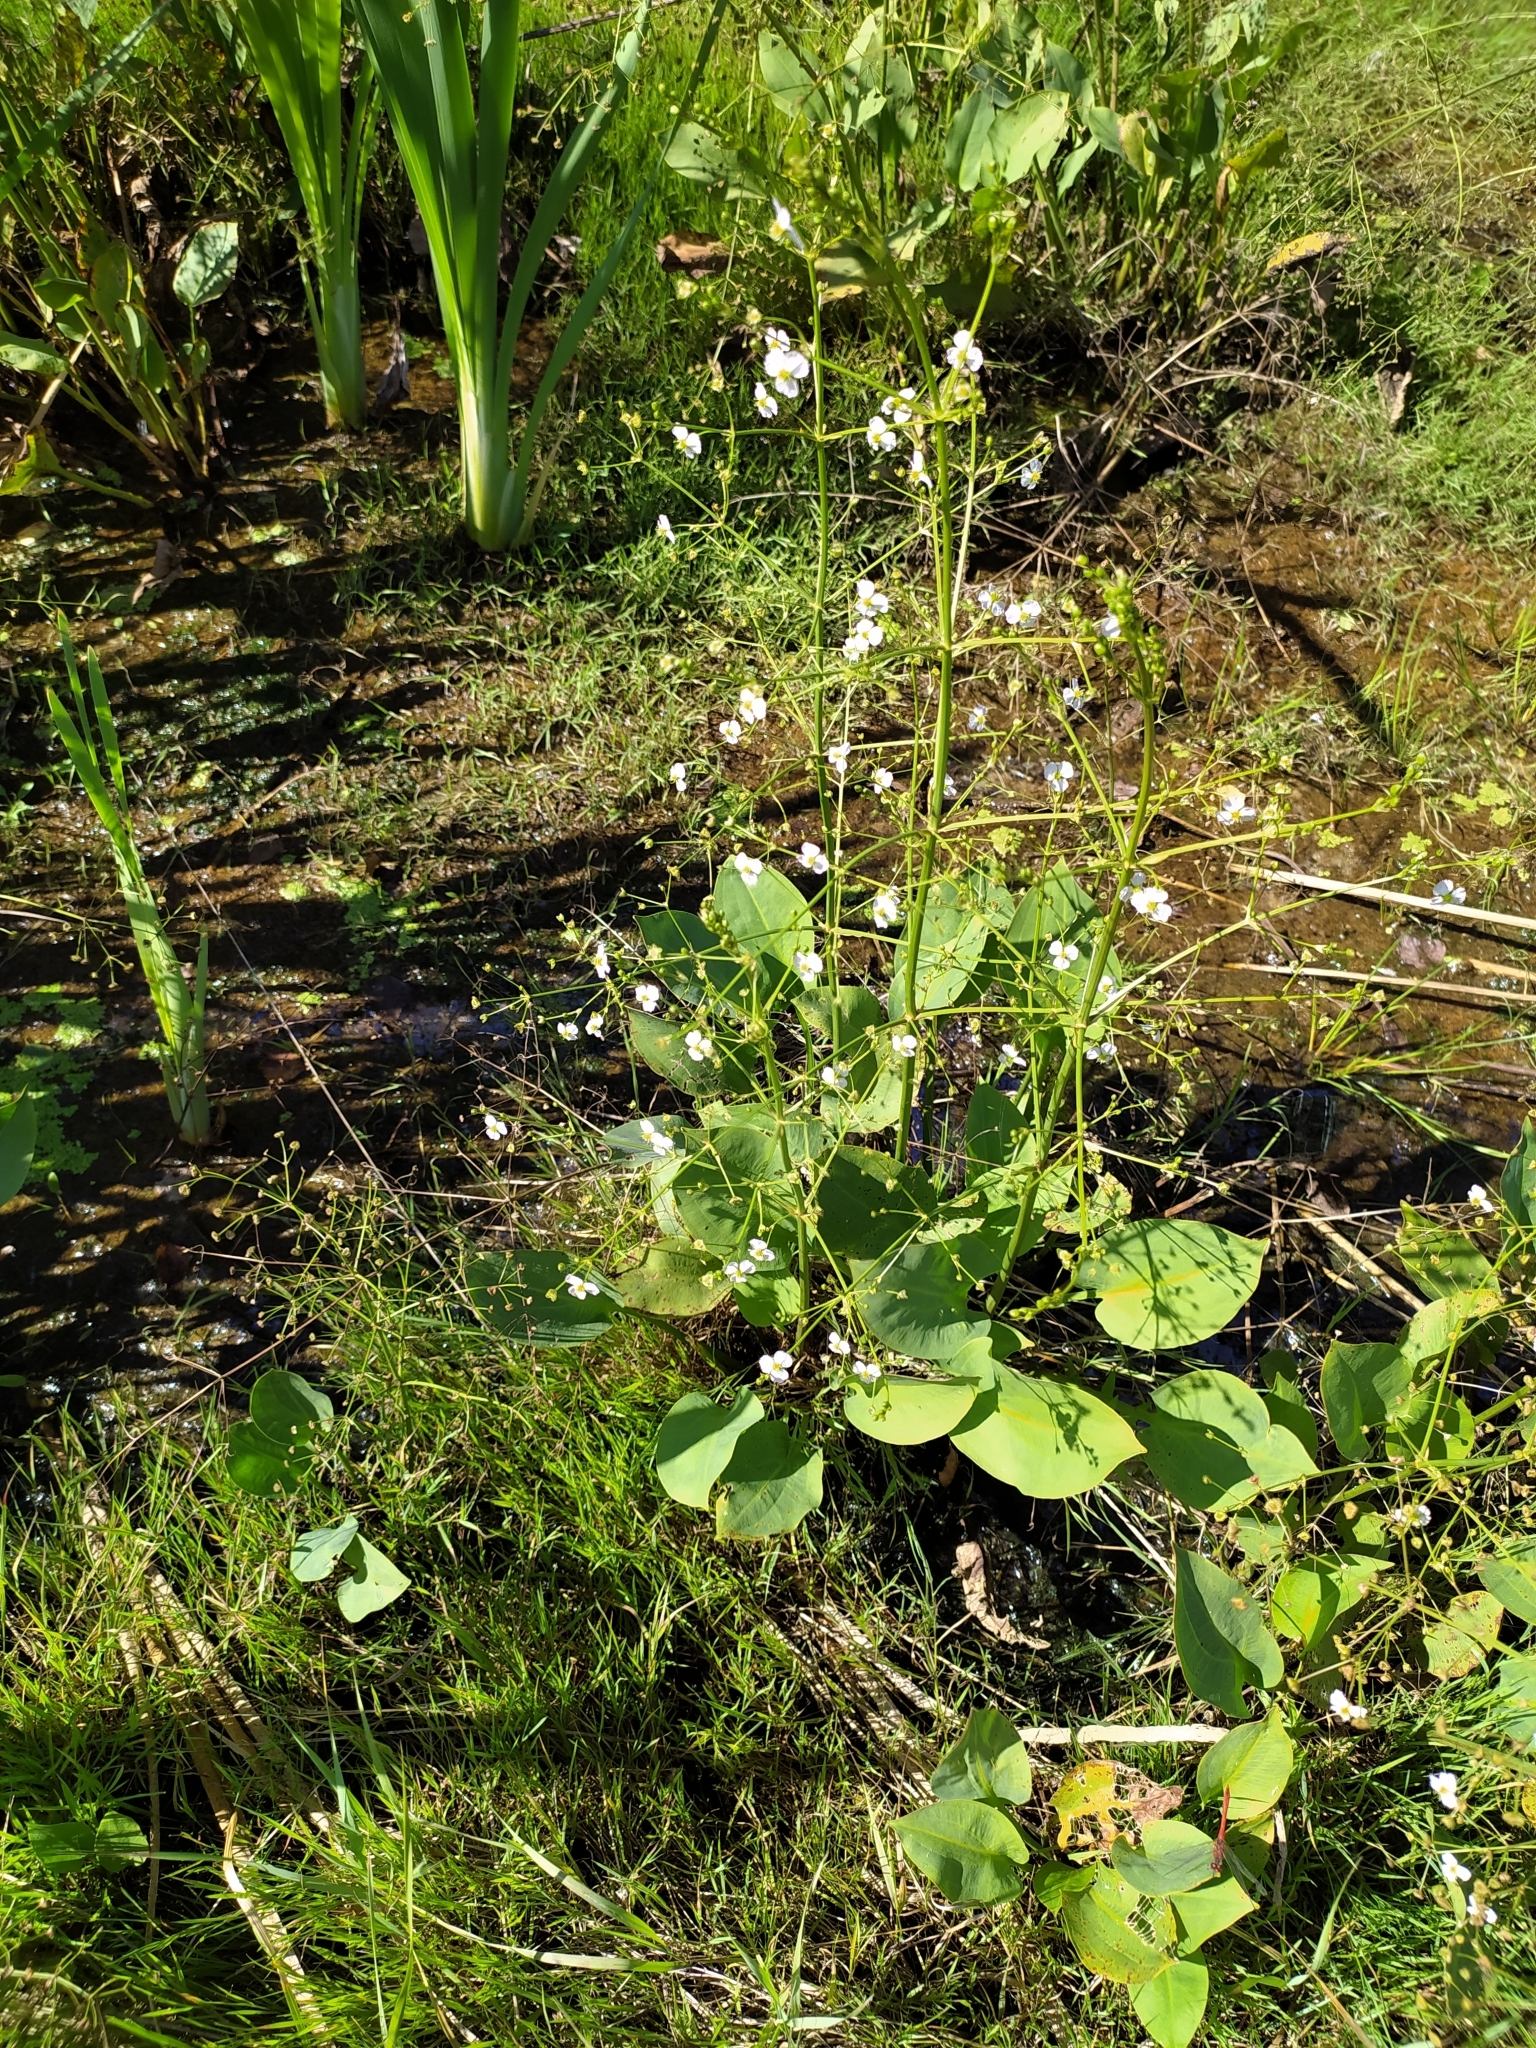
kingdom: Plantae
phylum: Tracheophyta
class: Liliopsida
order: Alismatales
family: Alismataceae
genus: Alisma
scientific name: Alisma plantago-aquatica
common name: Water-plantain
